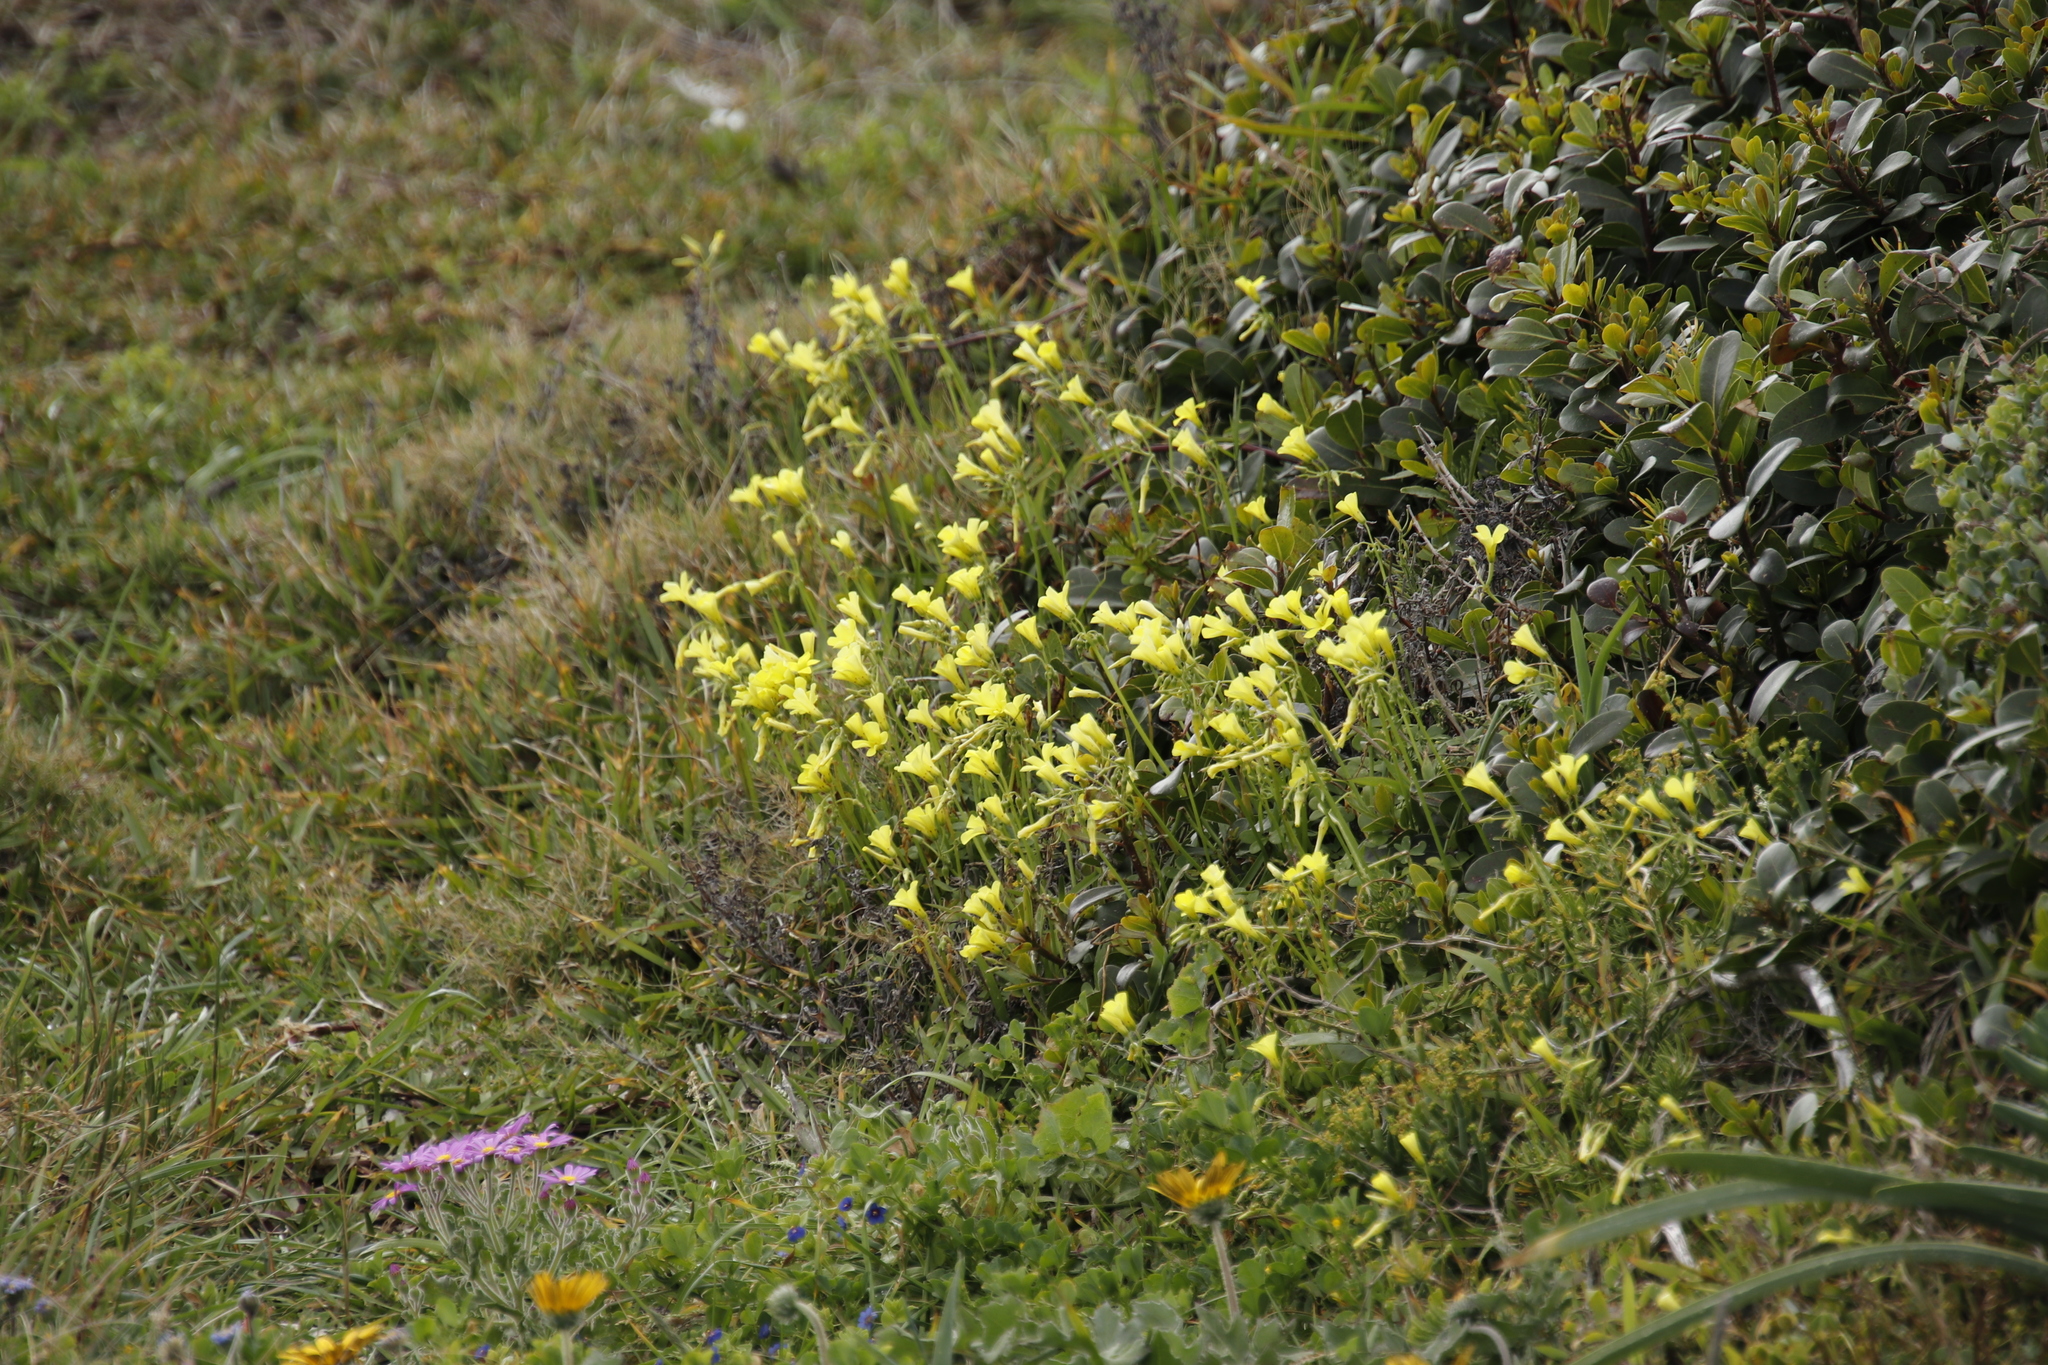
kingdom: Plantae
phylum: Tracheophyta
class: Magnoliopsida
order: Oxalidales
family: Oxalidaceae
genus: Oxalis
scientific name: Oxalis pes-caprae
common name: Bermuda-buttercup
